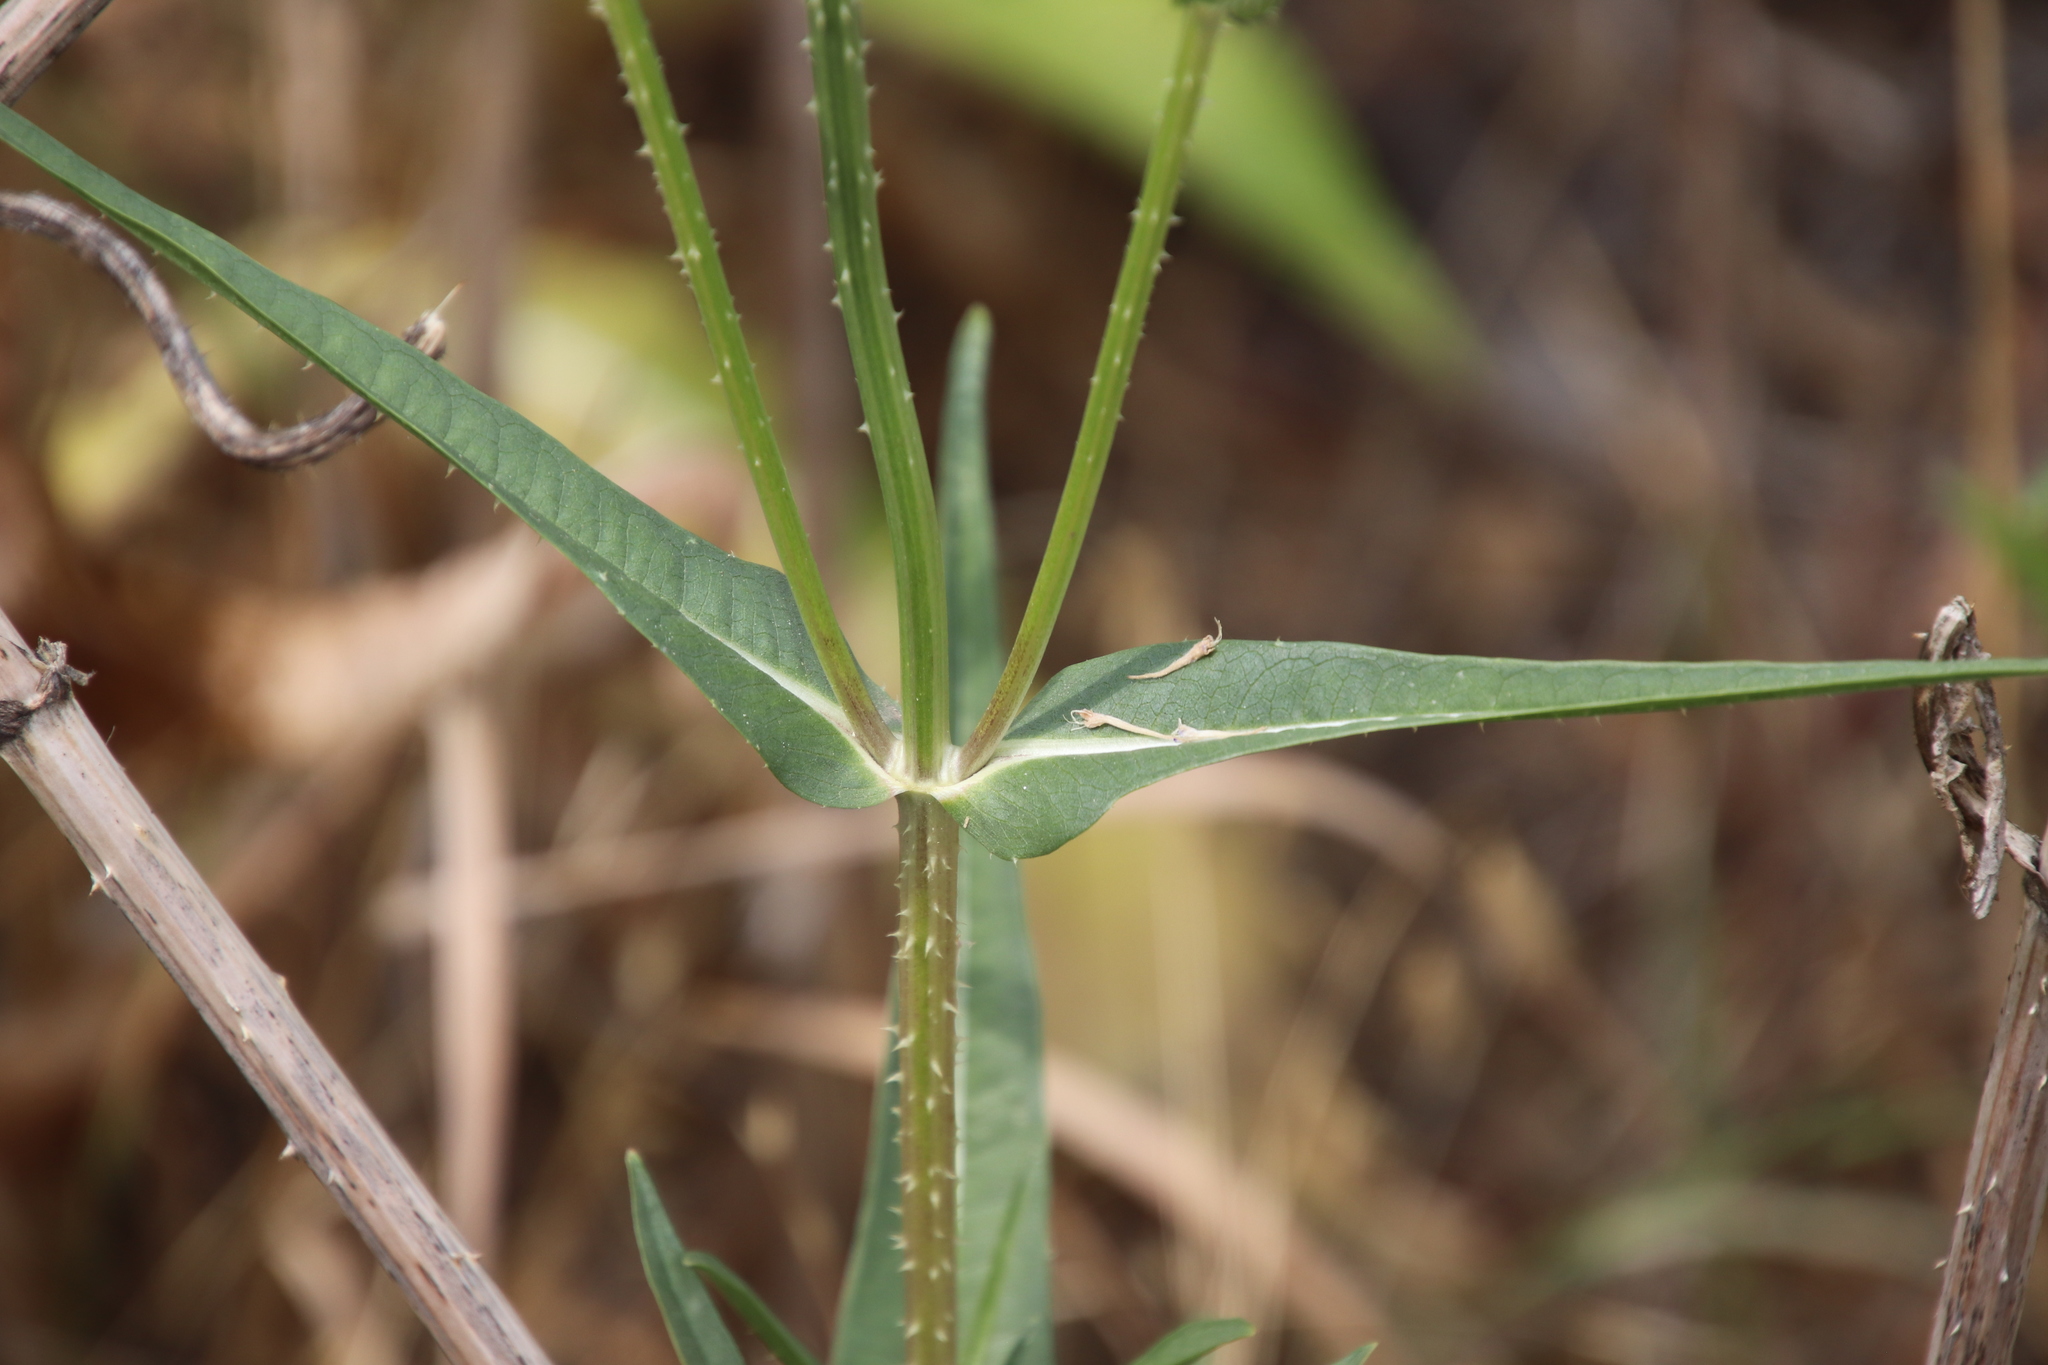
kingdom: Plantae
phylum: Tracheophyta
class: Magnoliopsida
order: Dipsacales
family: Caprifoliaceae
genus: Dipsacus
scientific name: Dipsacus fullonum
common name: Teasel
